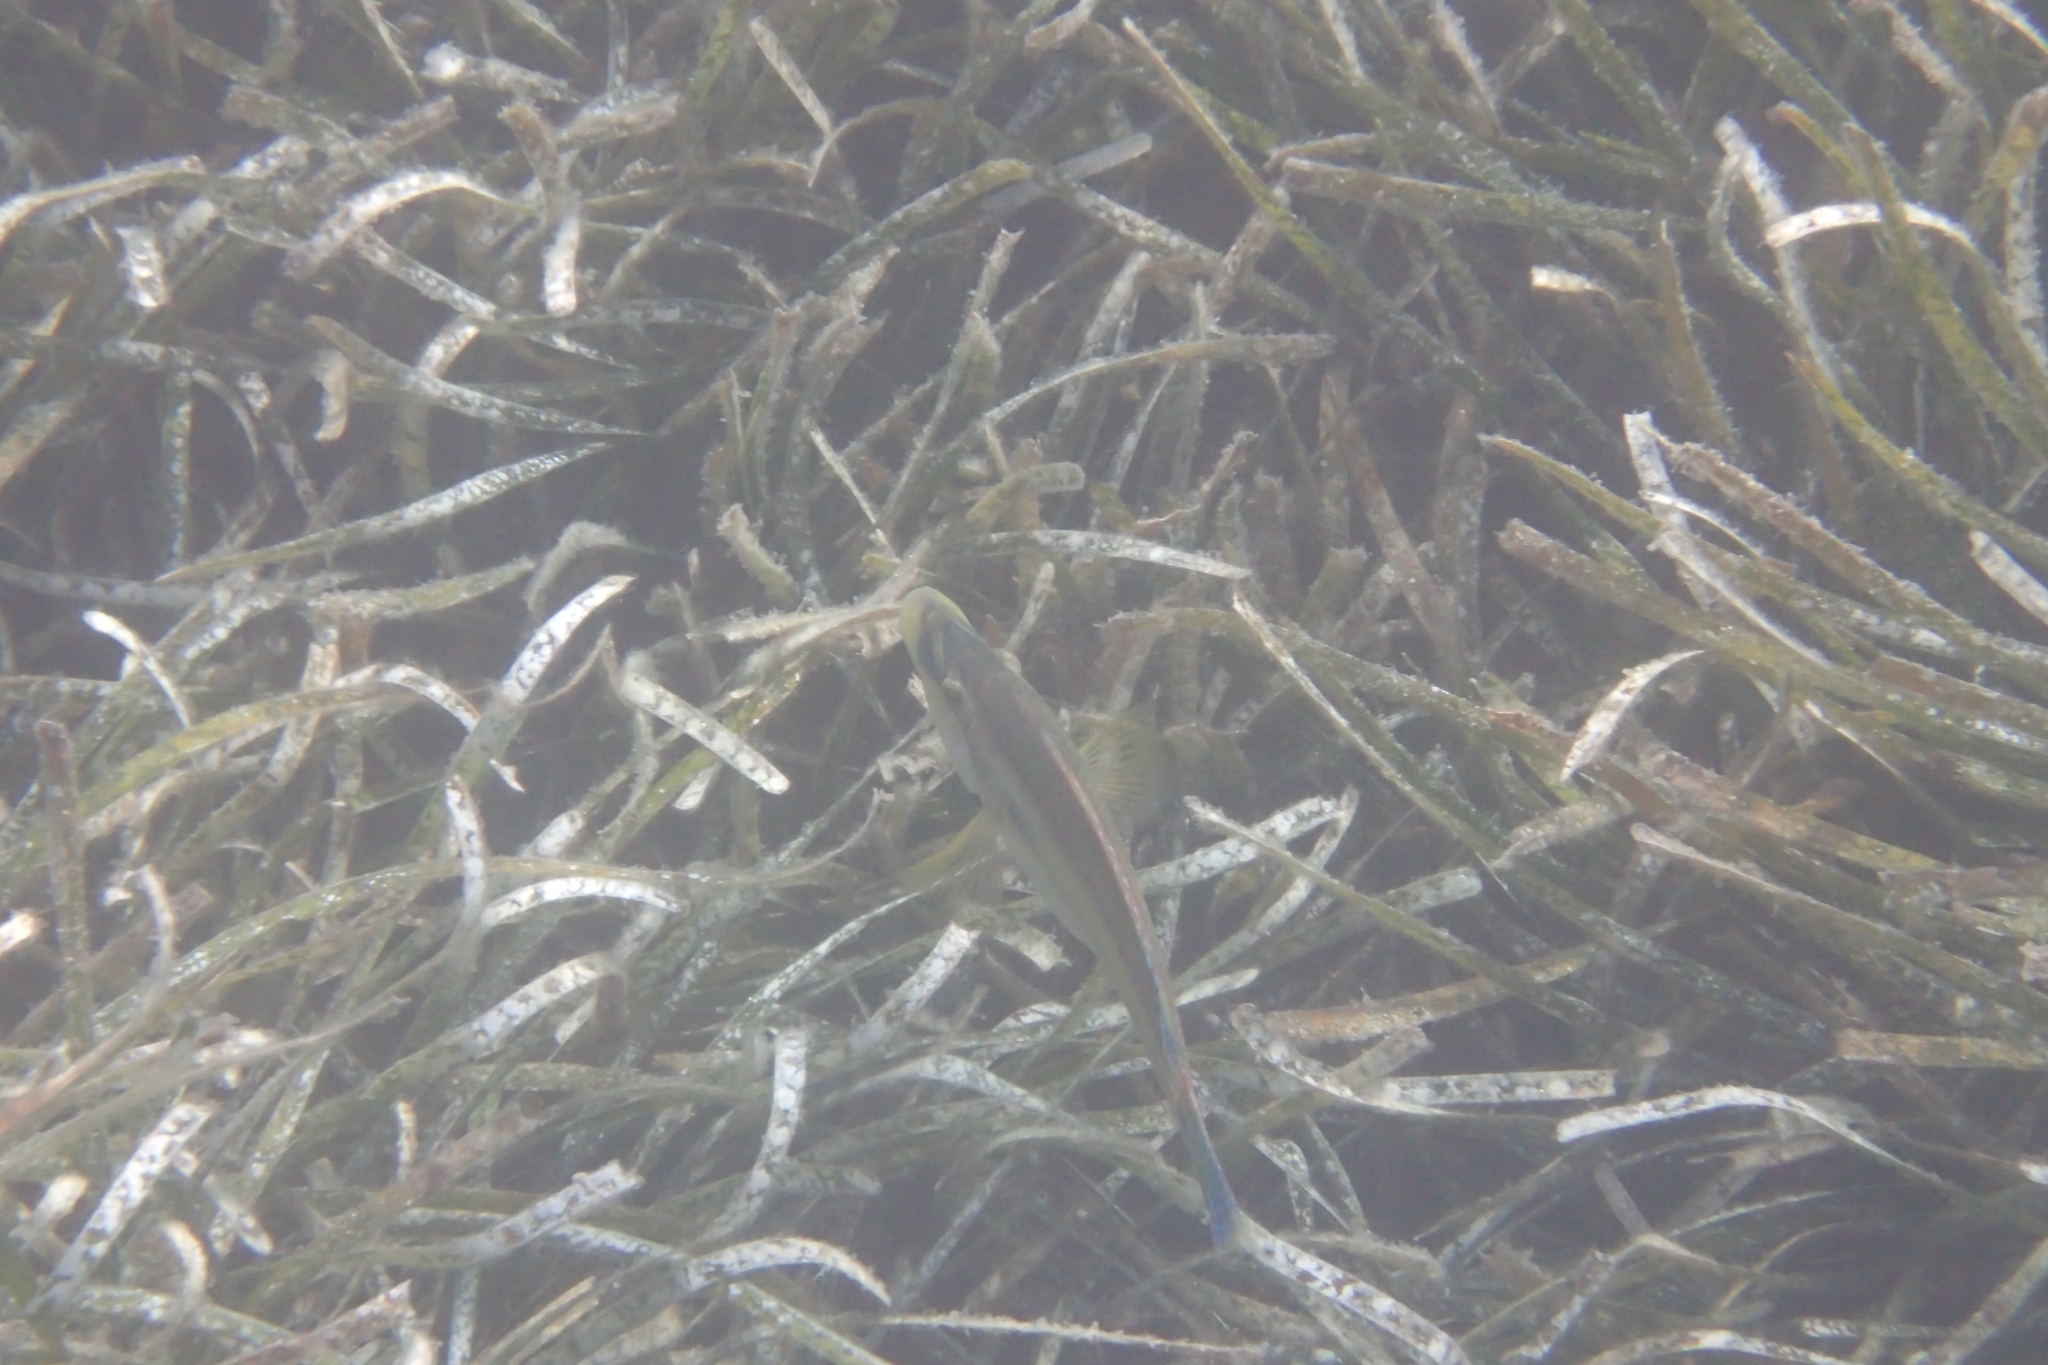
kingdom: Animalia
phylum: Chordata
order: Perciformes
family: Labridae
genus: Symphodus
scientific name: Symphodus tinca
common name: Peacock wrasse
